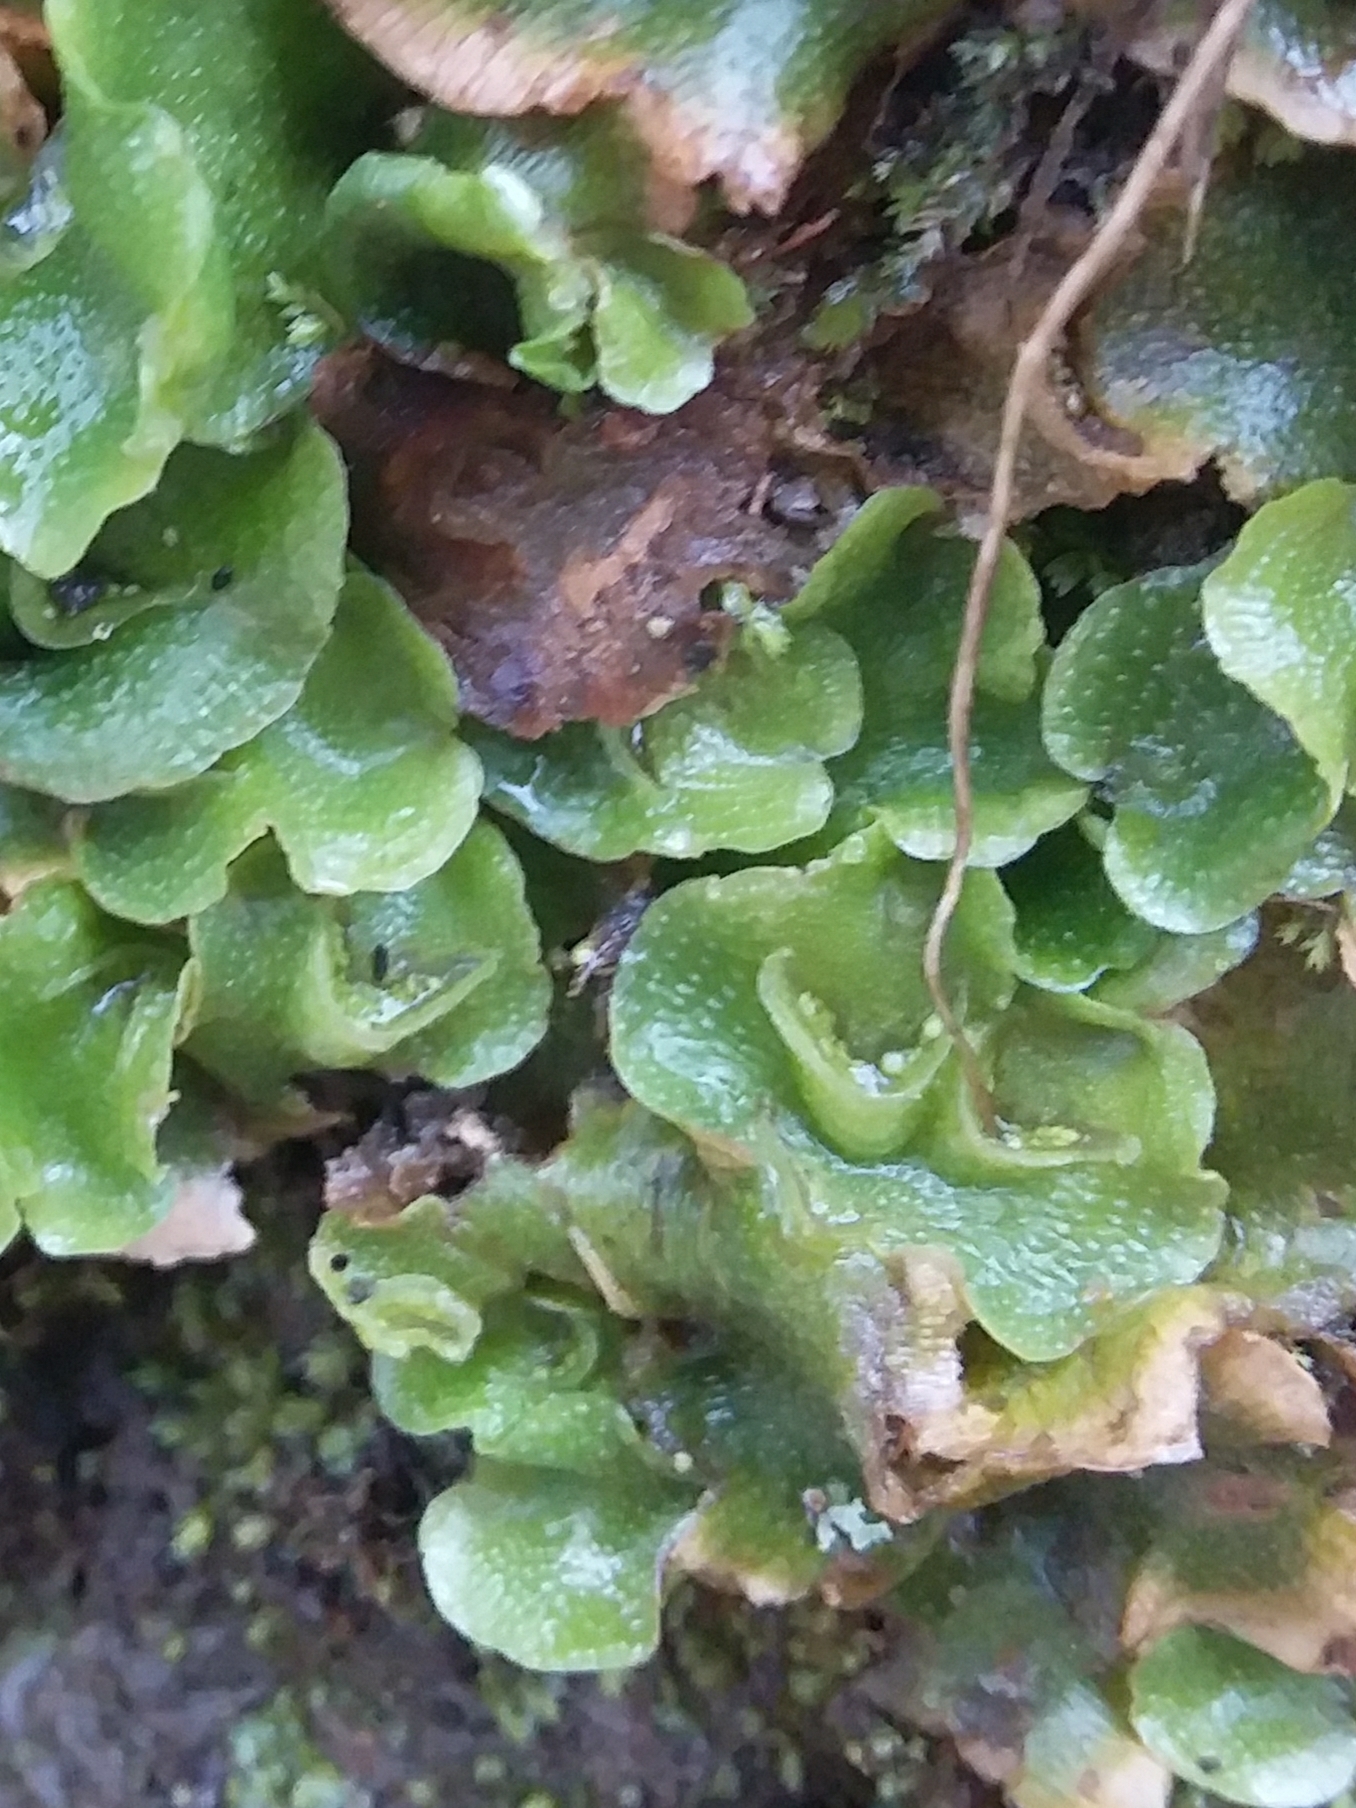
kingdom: Plantae
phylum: Marchantiophyta
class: Marchantiopsida
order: Lunulariales
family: Lunulariaceae
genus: Lunularia
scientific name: Lunularia cruciata
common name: Crescent-cup liverwort
